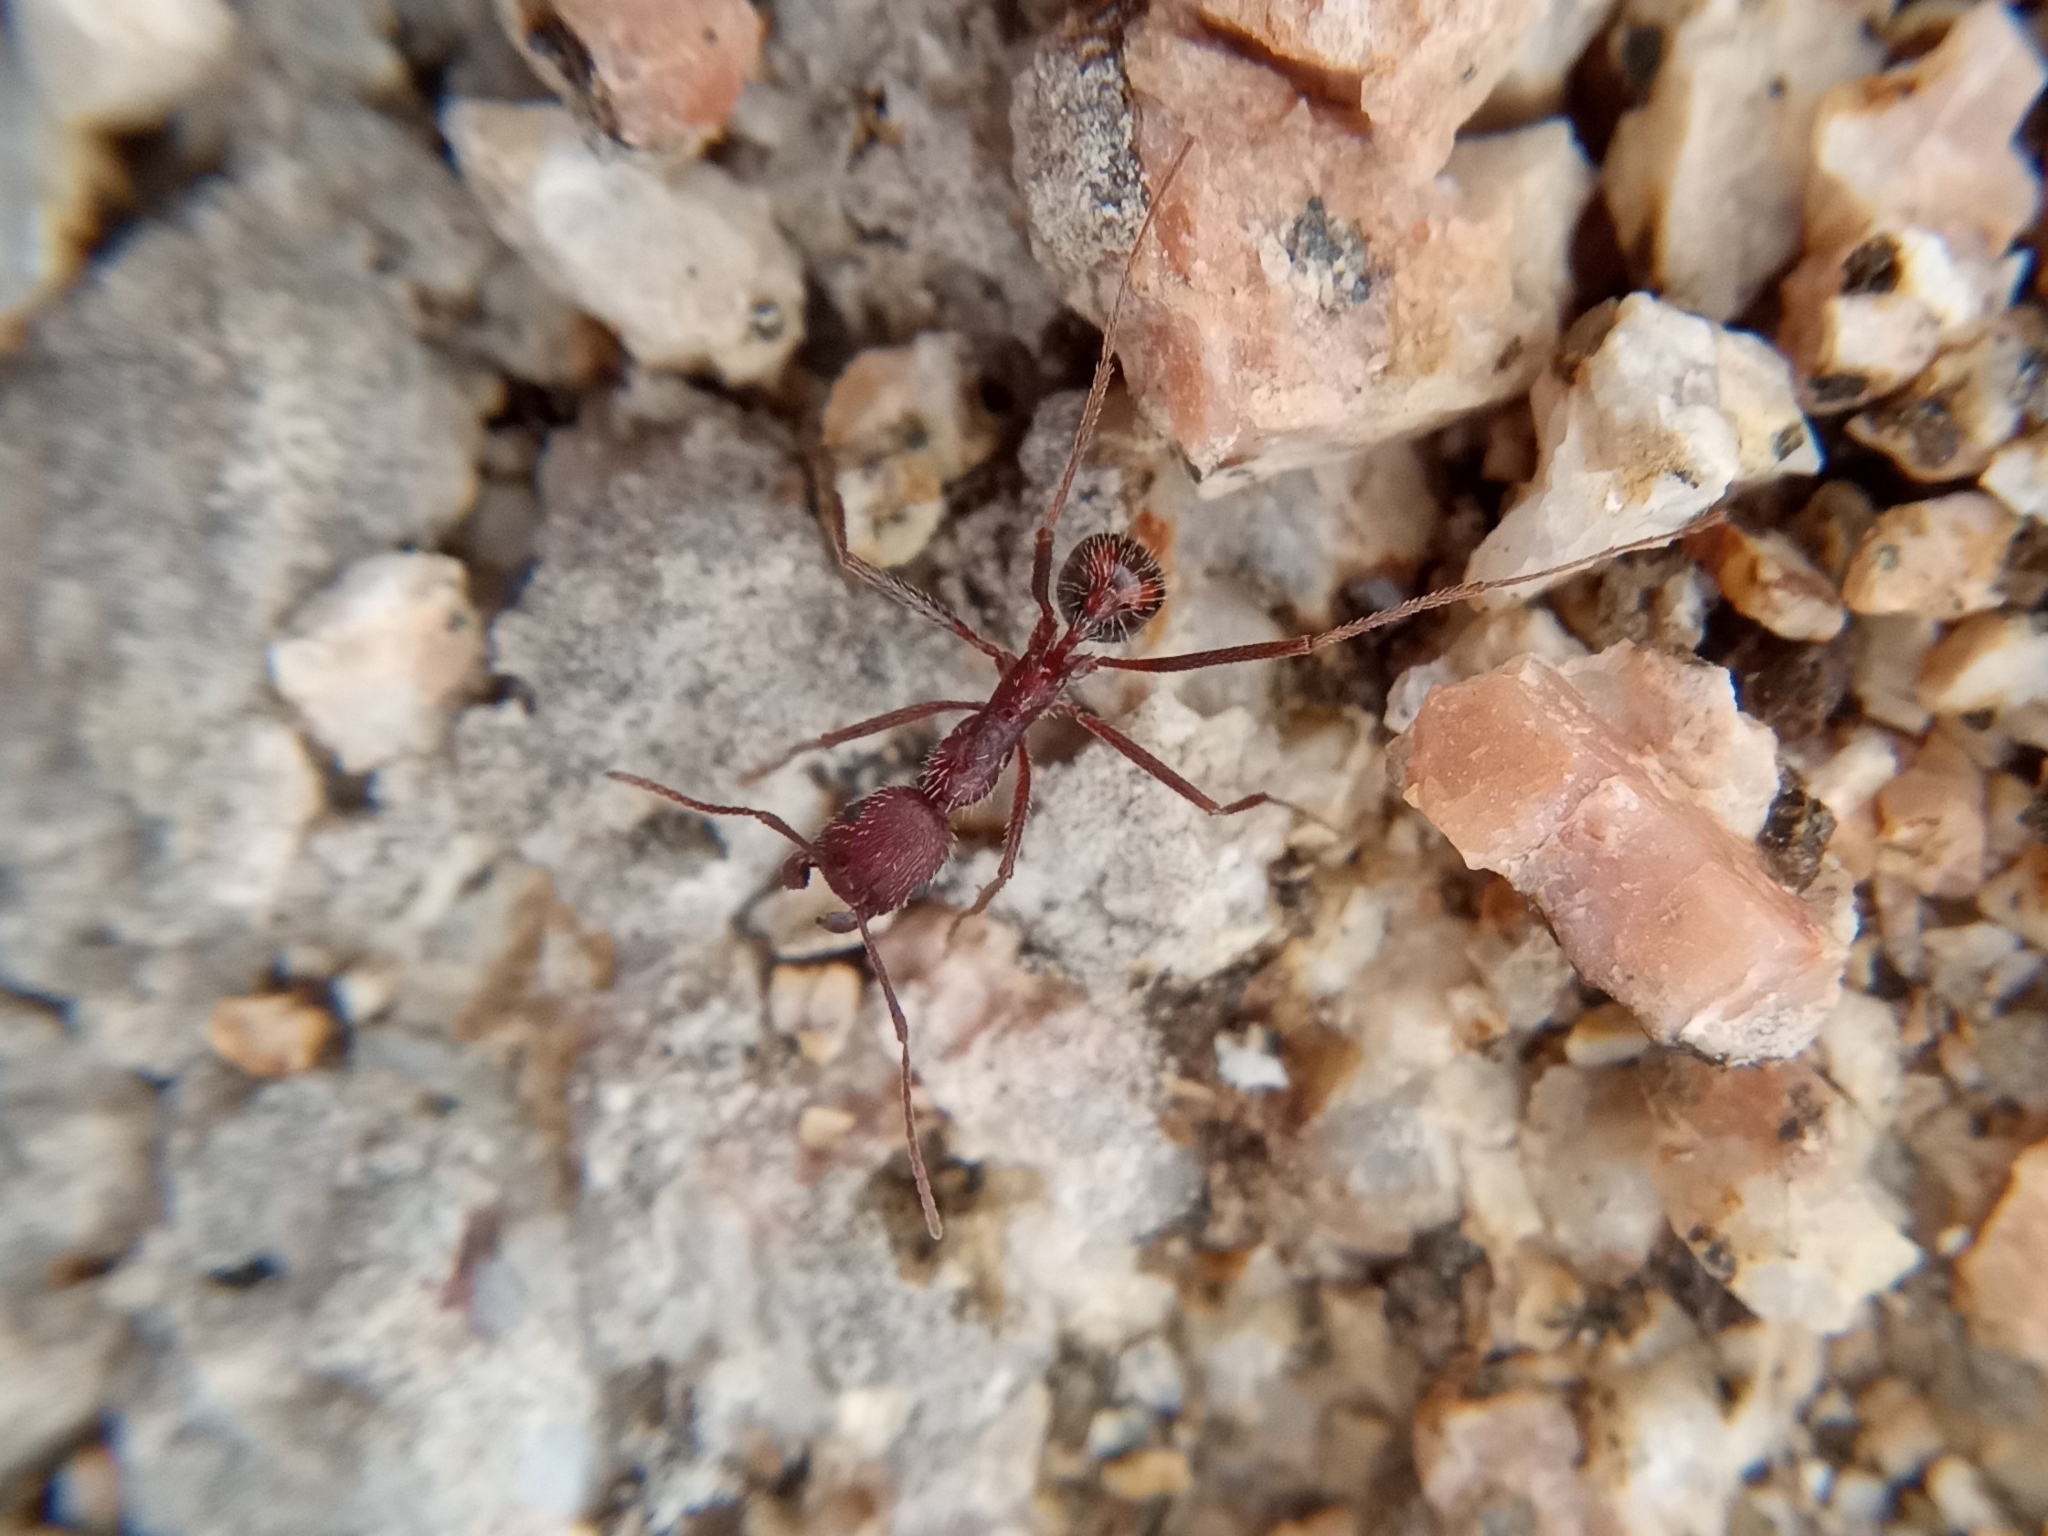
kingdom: Animalia
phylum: Arthropoda
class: Insecta
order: Hymenoptera
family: Formicidae
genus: Novomessor
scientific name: Novomessor albisetosa
